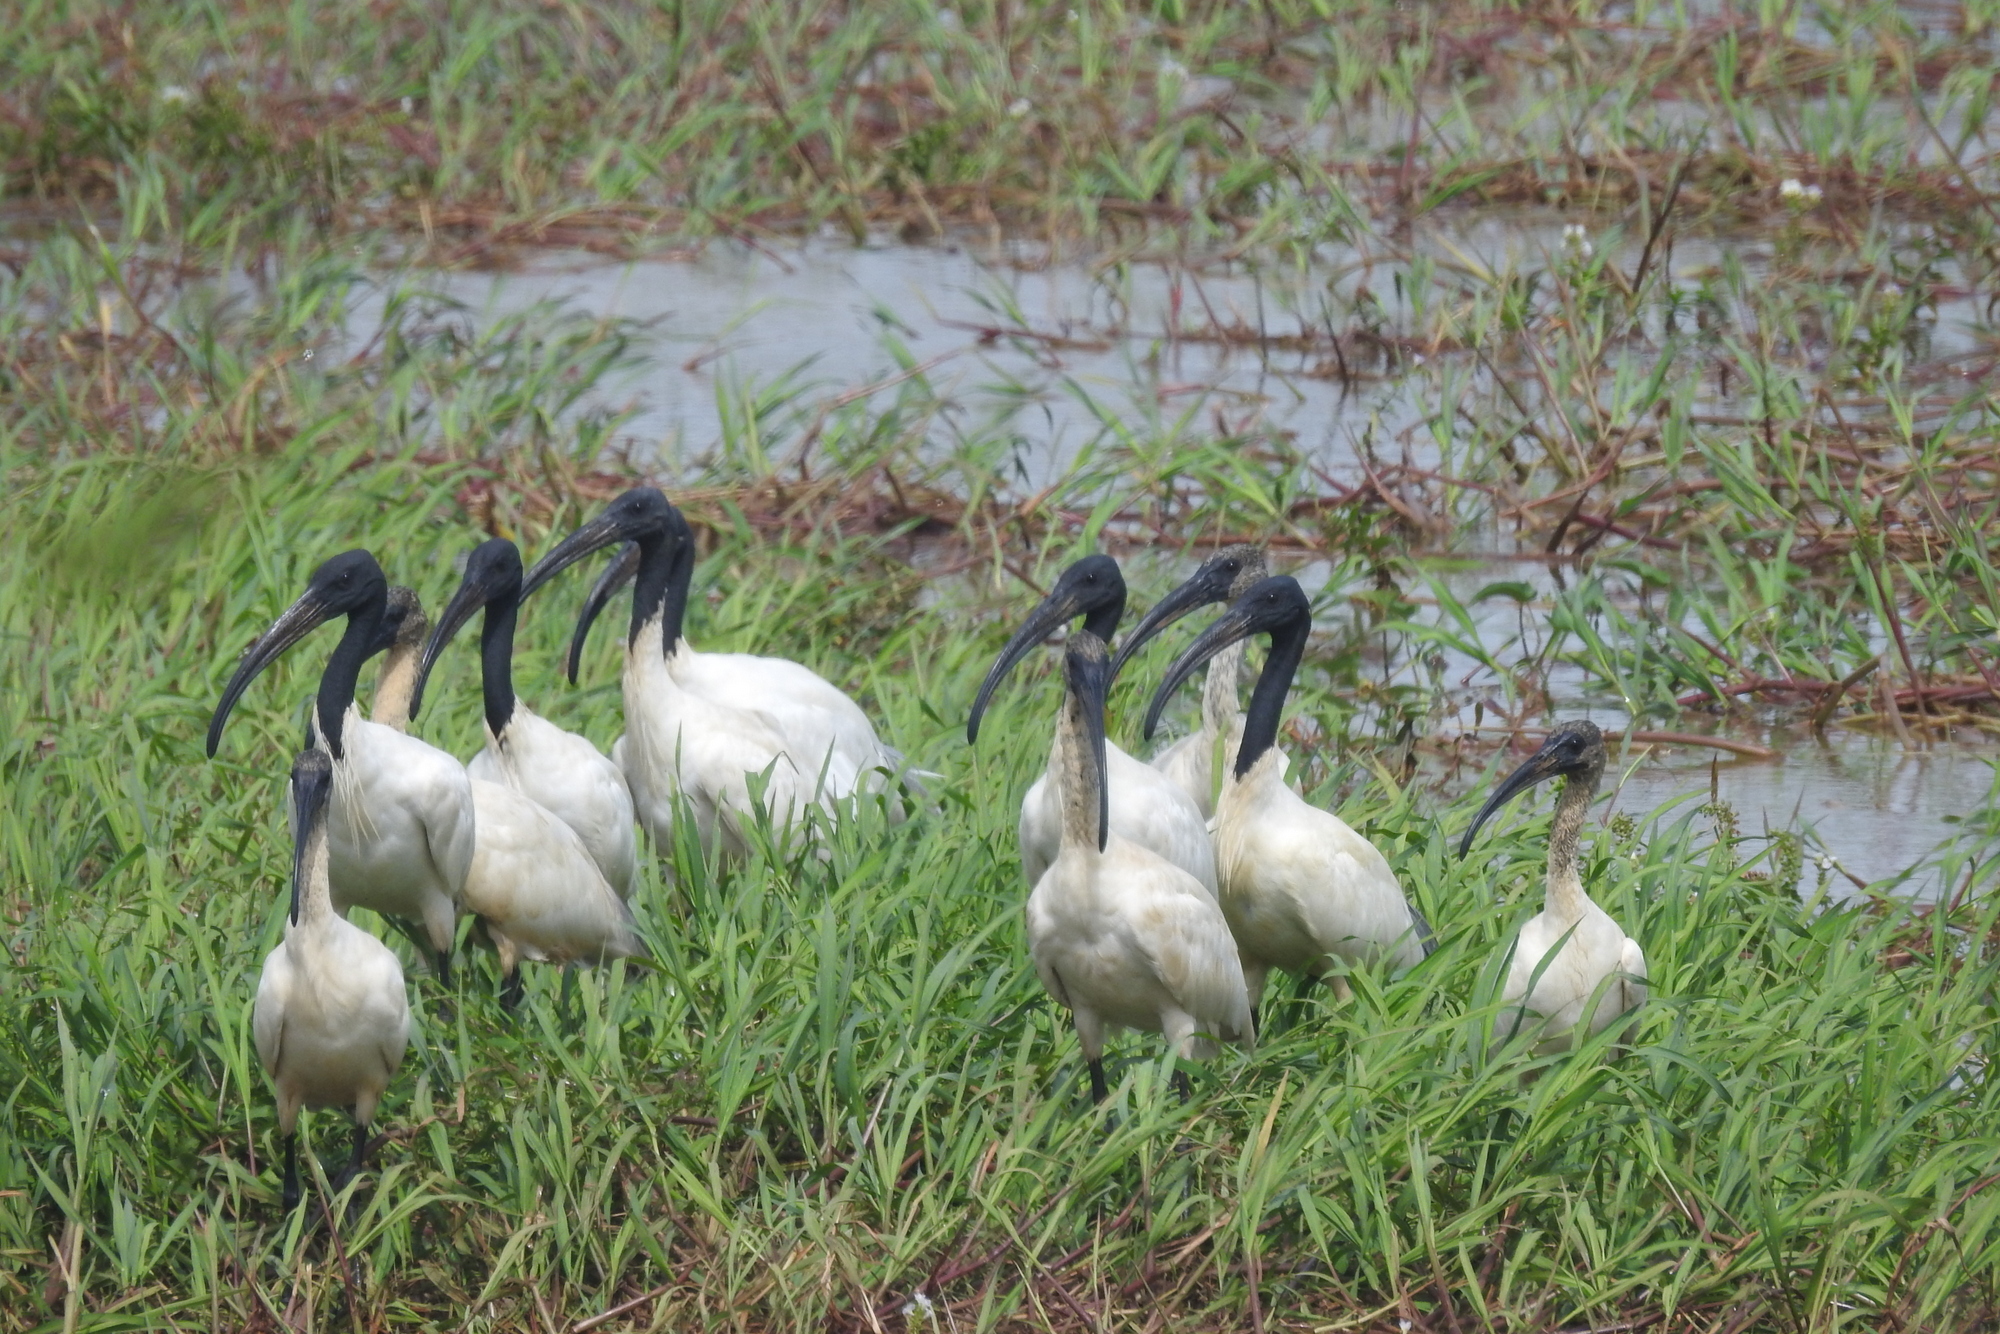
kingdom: Animalia
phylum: Chordata
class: Aves
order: Pelecaniformes
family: Threskiornithidae
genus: Threskiornis
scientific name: Threskiornis melanocephalus
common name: Black-headed ibis
